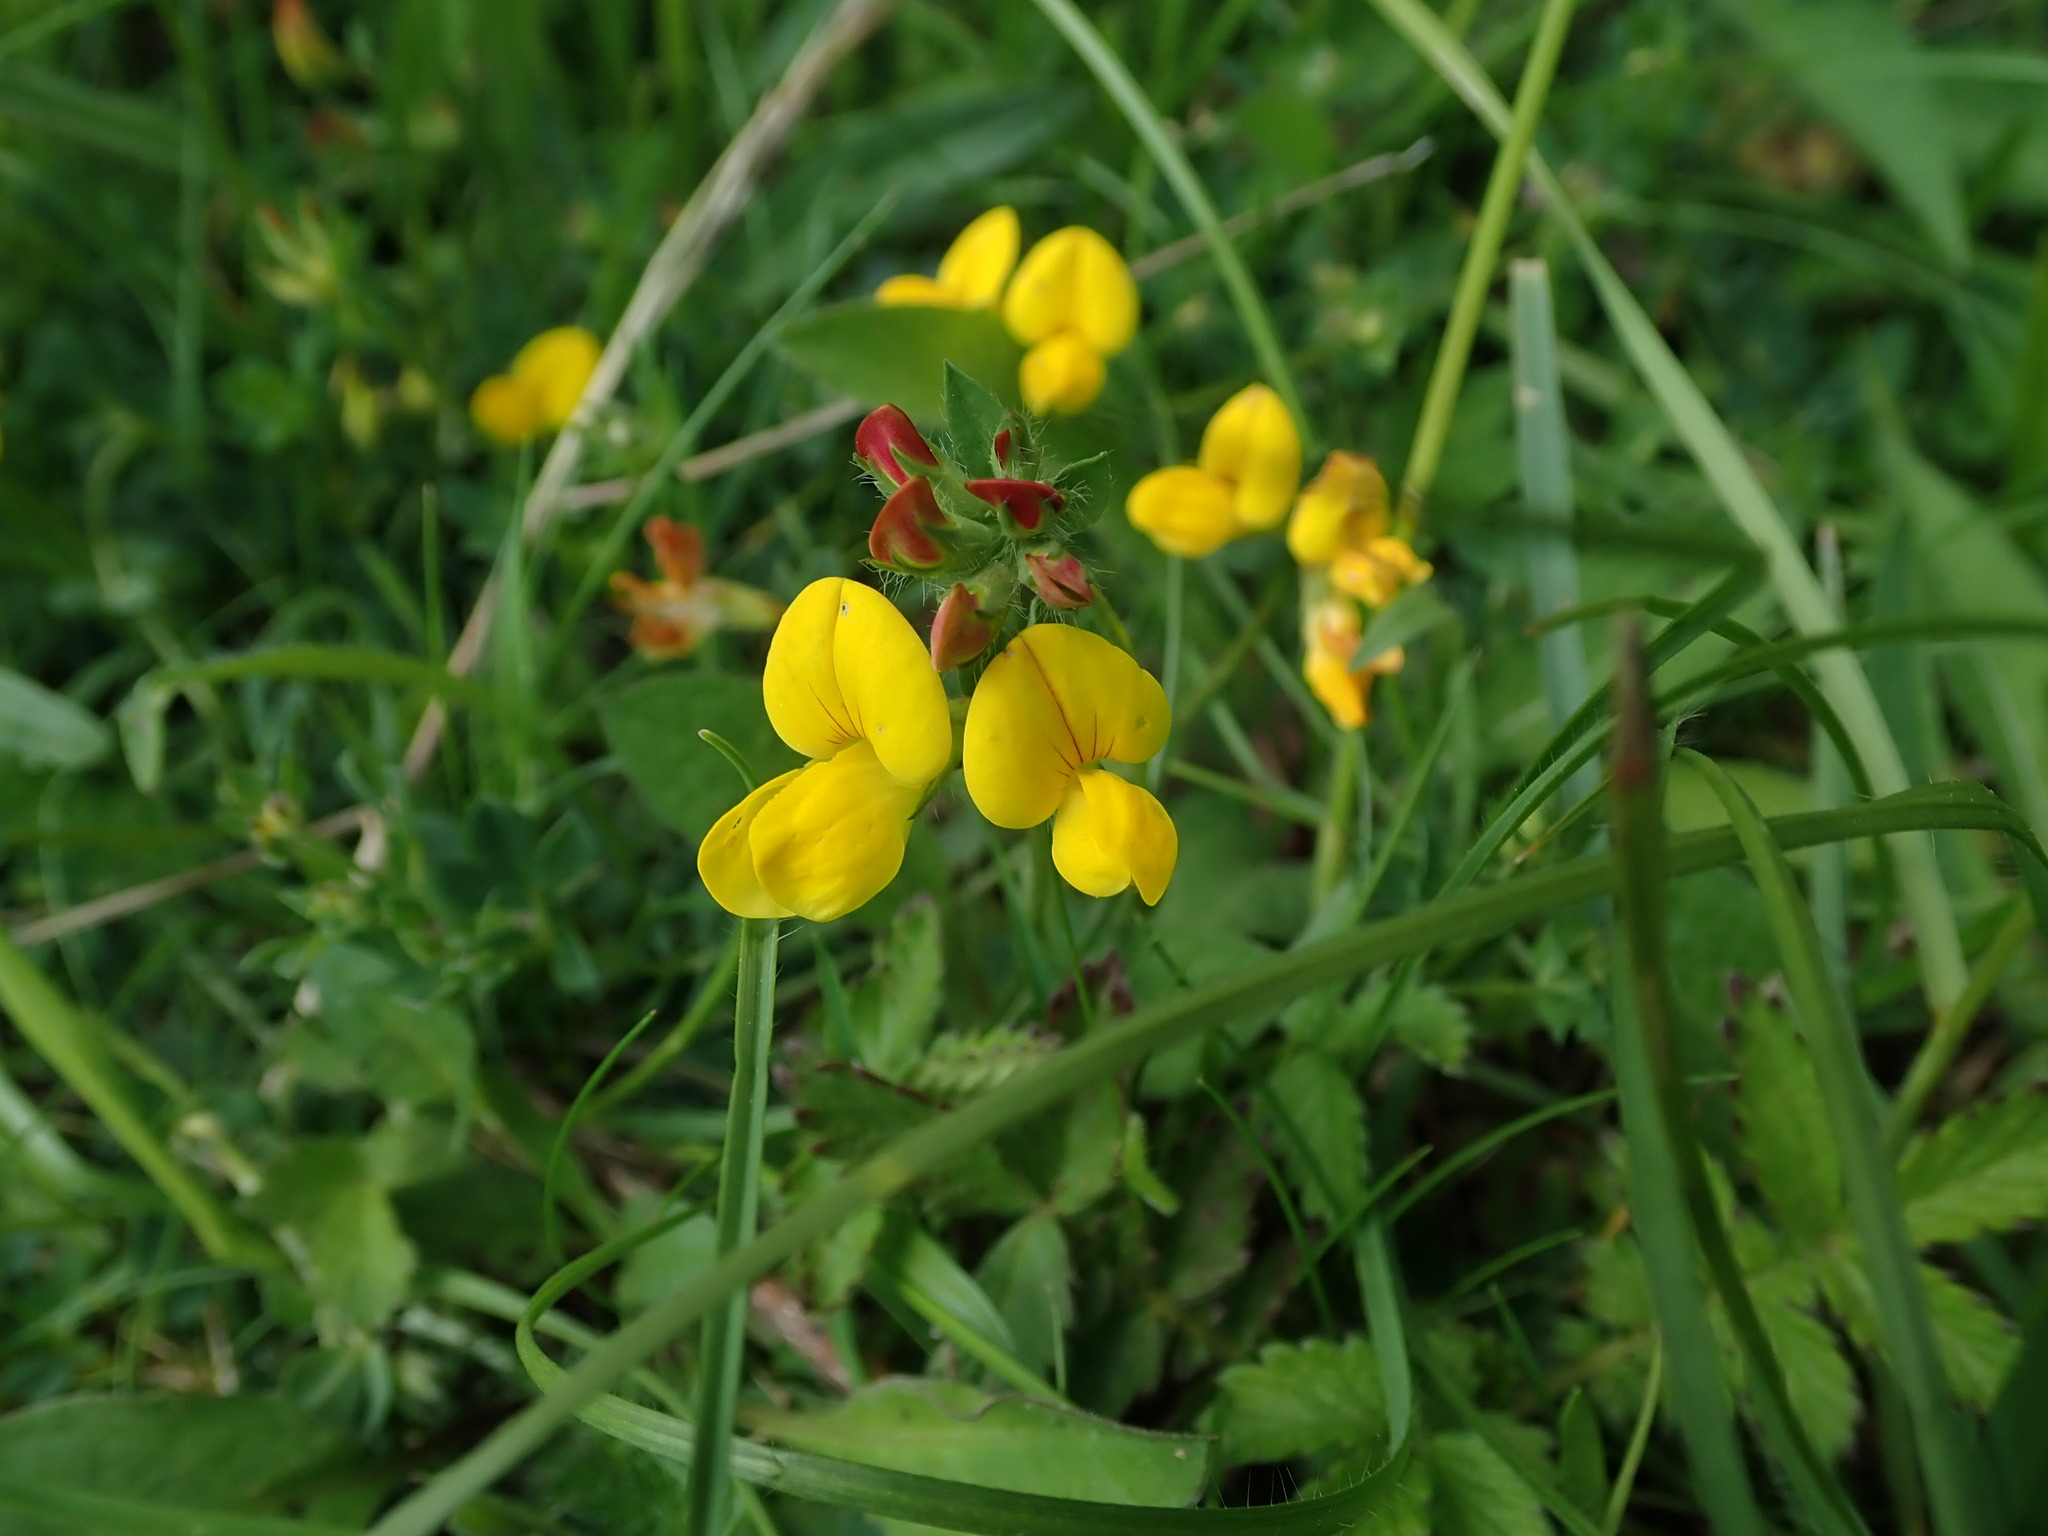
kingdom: Plantae
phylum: Tracheophyta
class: Magnoliopsida
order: Fabales
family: Fabaceae
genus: Lotus
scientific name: Lotus corniculatus
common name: Common bird's-foot-trefoil
